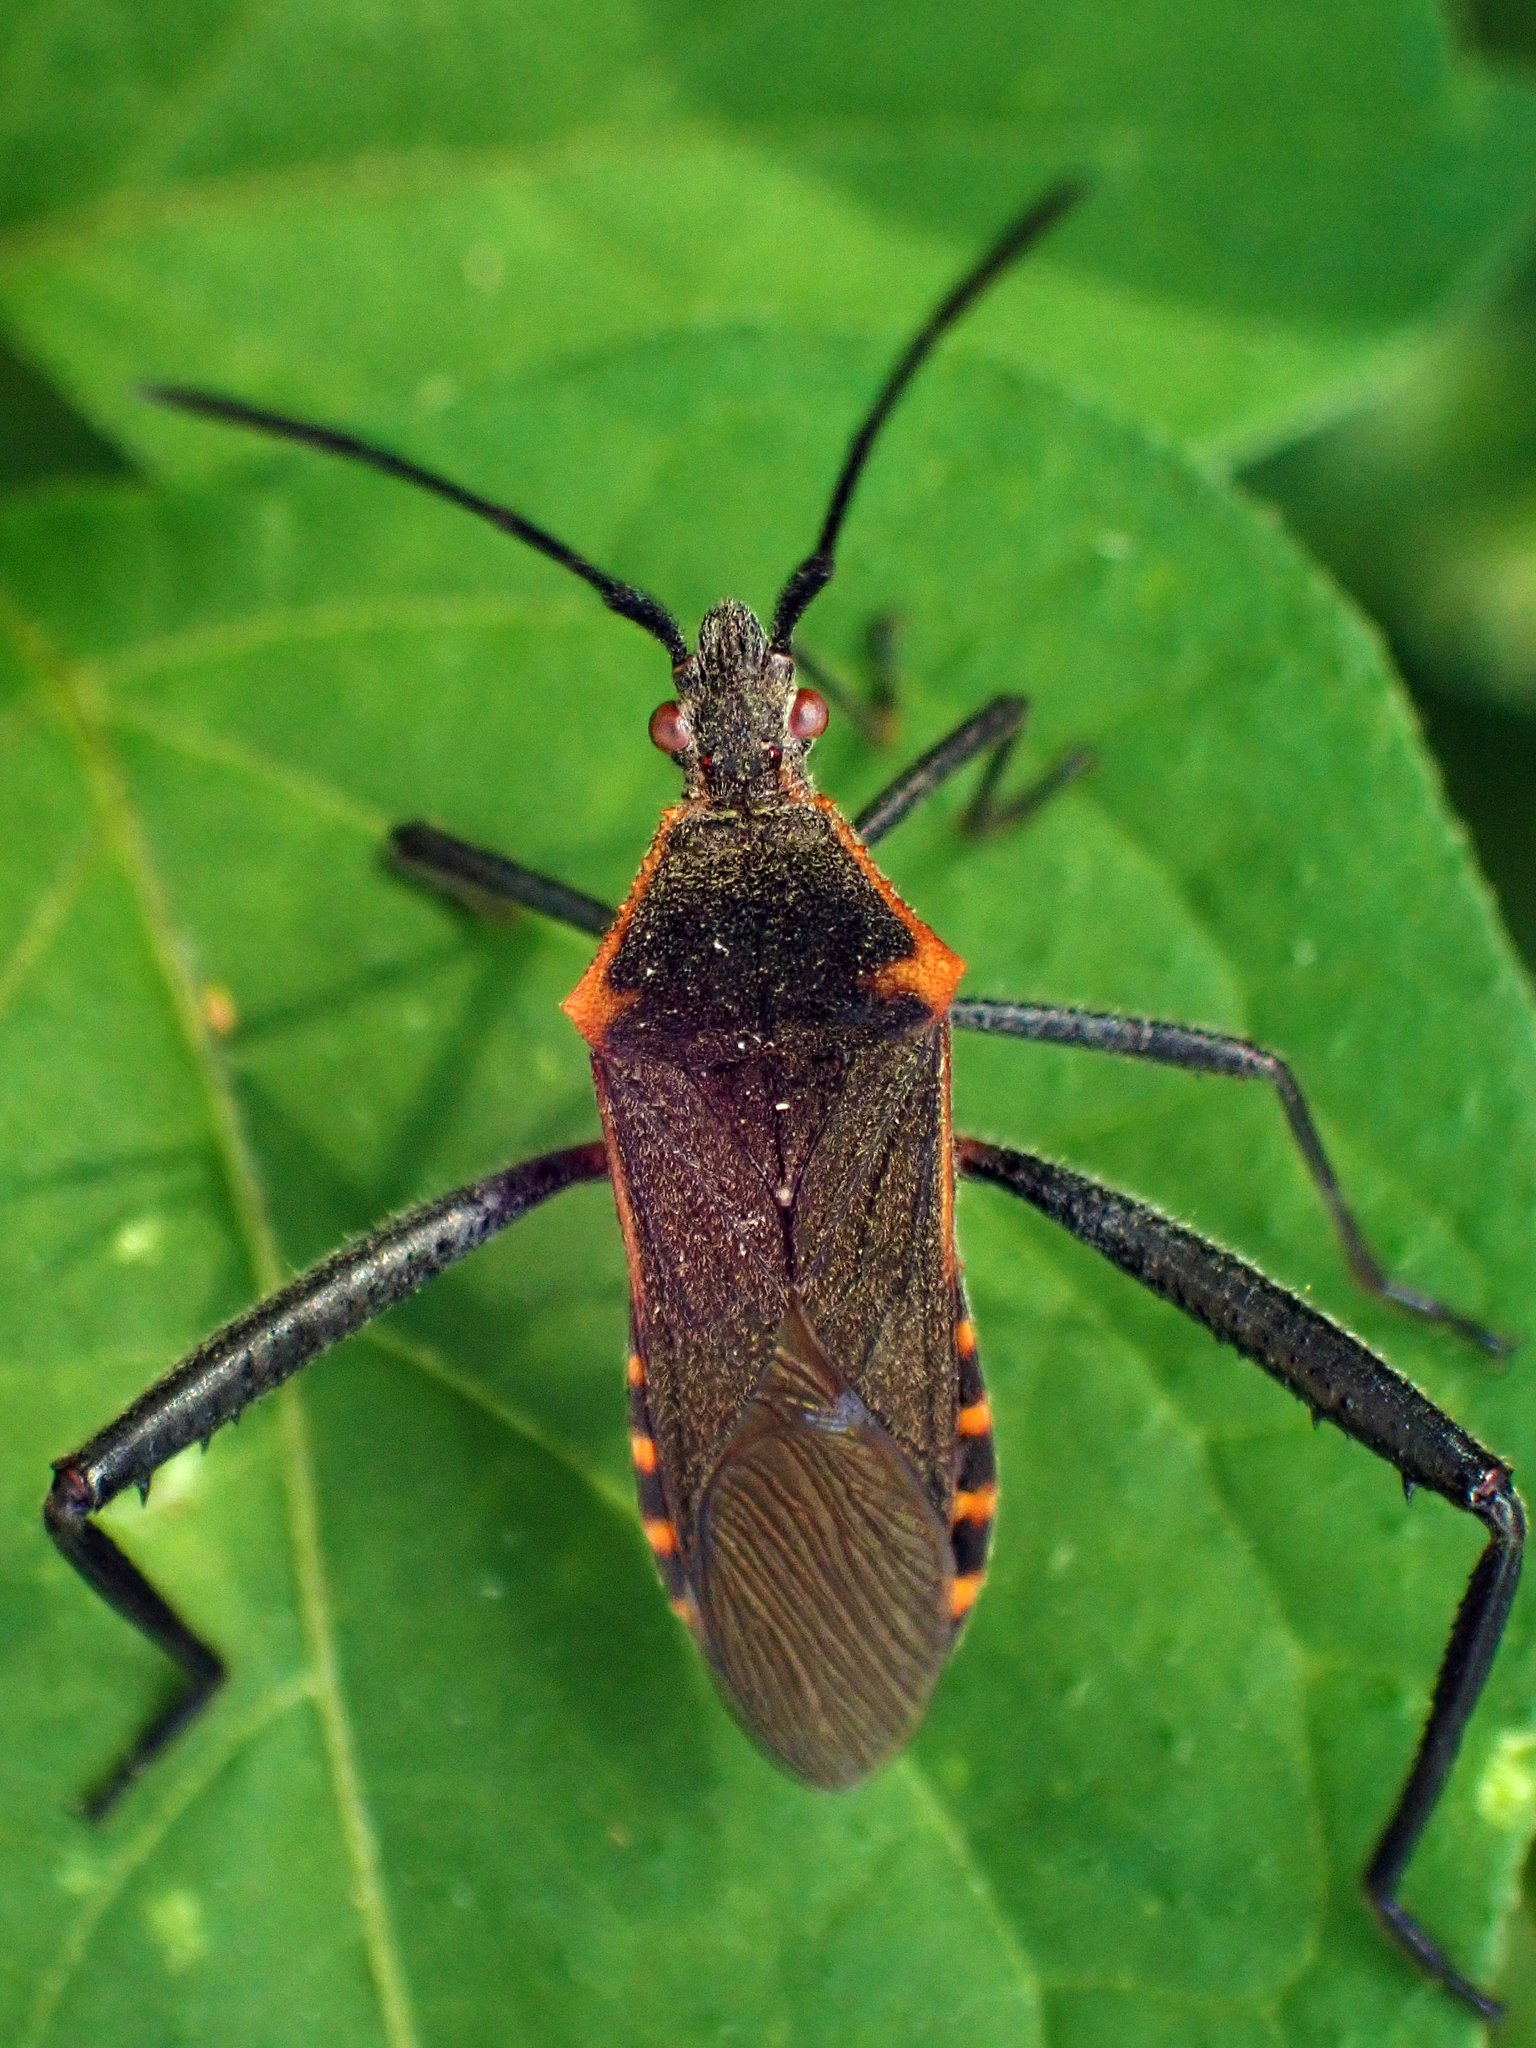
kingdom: Animalia
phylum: Arthropoda
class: Insecta
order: Hemiptera
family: Coreidae
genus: Phthiacnemia
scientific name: Phthiacnemia picta
